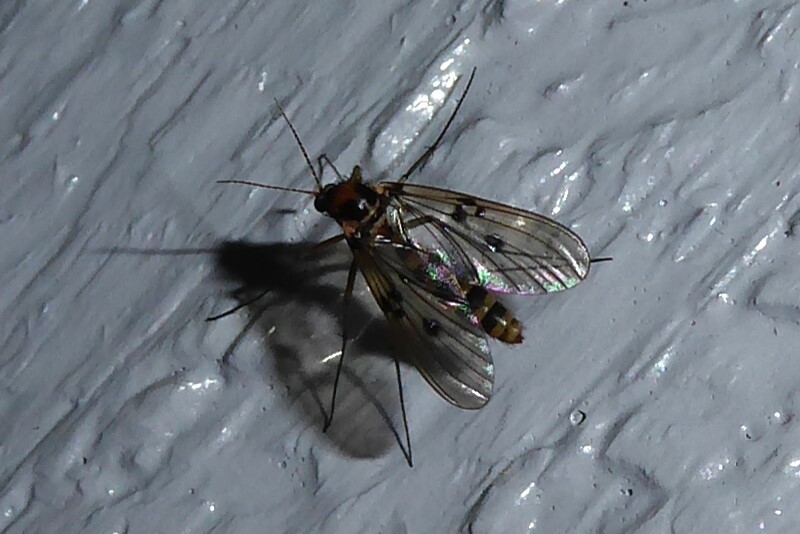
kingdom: Animalia
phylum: Arthropoda
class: Insecta
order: Diptera
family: Mycetophilidae
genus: Mycomya
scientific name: Mycomya quadrimaculata
